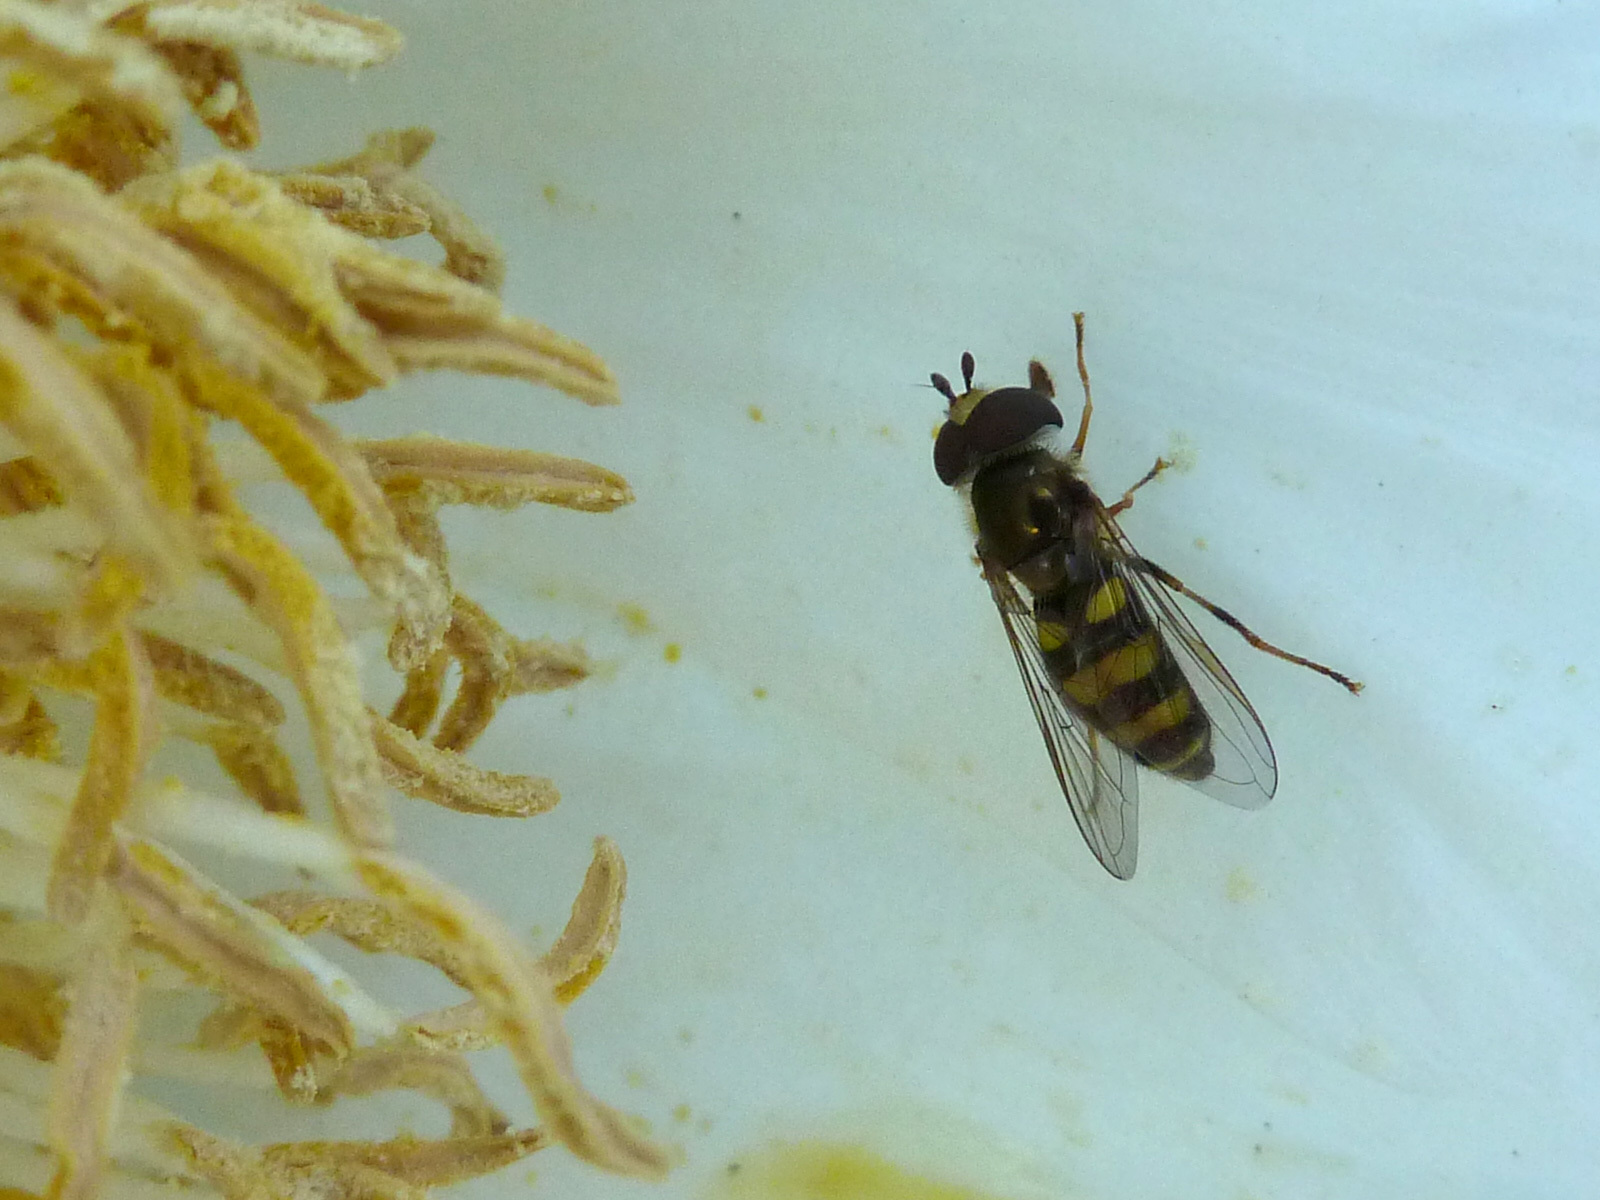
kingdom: Animalia
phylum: Arthropoda
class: Insecta
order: Diptera
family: Syrphidae
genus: Eupeodes
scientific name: Eupeodes
